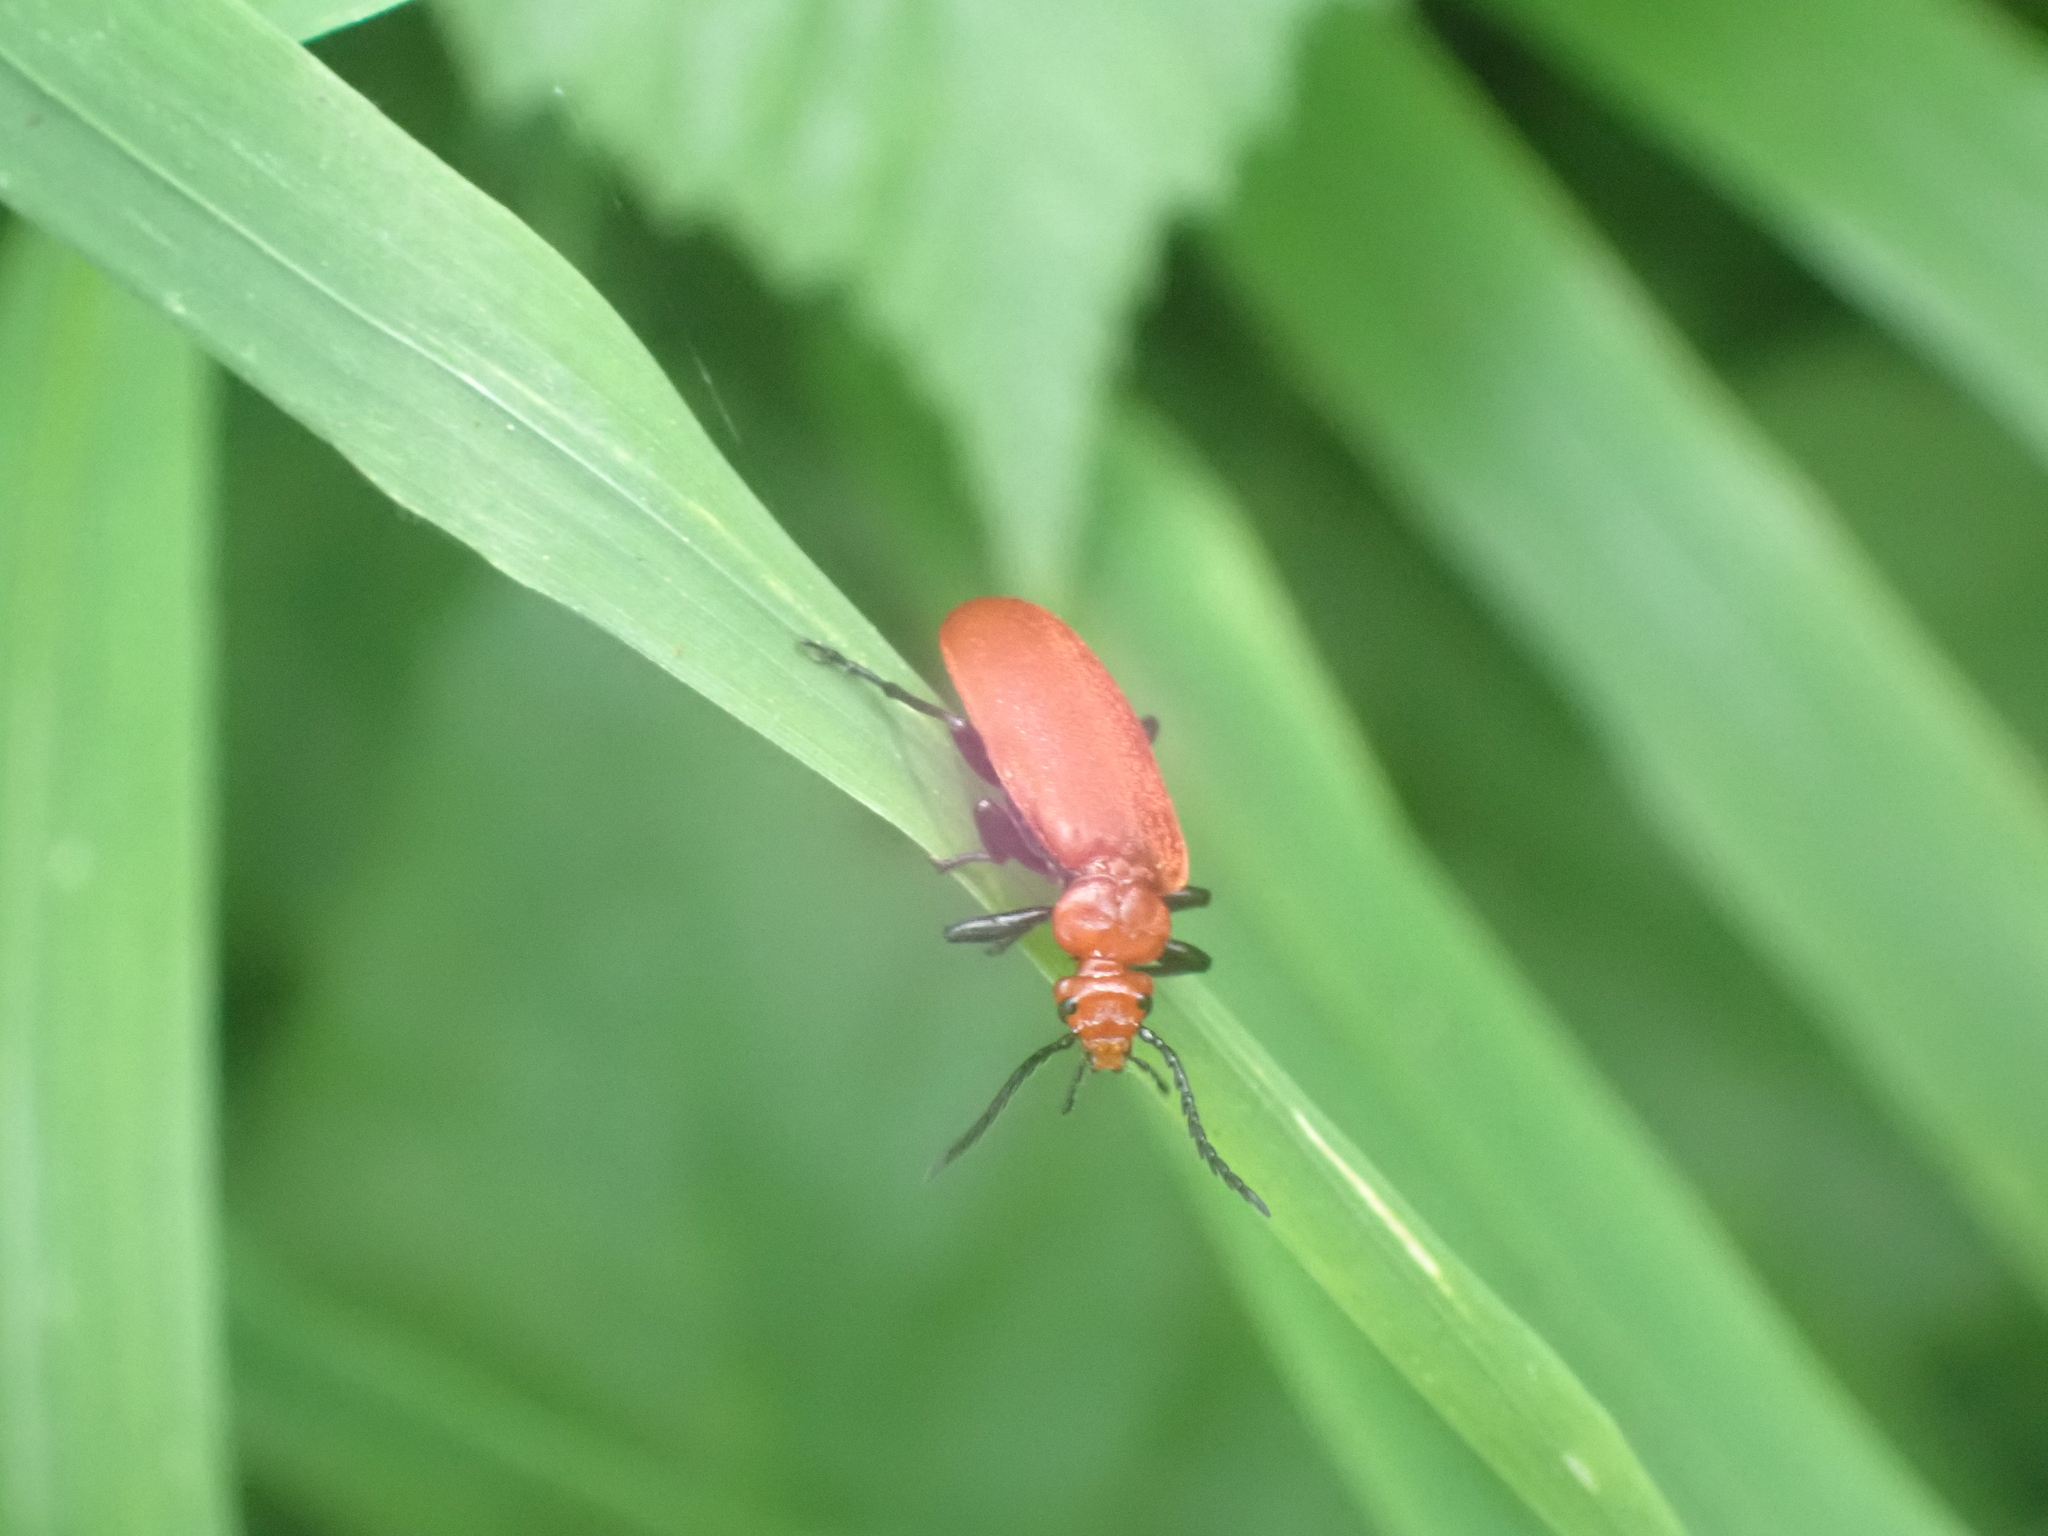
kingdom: Animalia
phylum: Arthropoda
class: Insecta
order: Coleoptera
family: Pyrochroidae
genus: Pyrochroa
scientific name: Pyrochroa serraticornis
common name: Red-headed cardinal beetle
